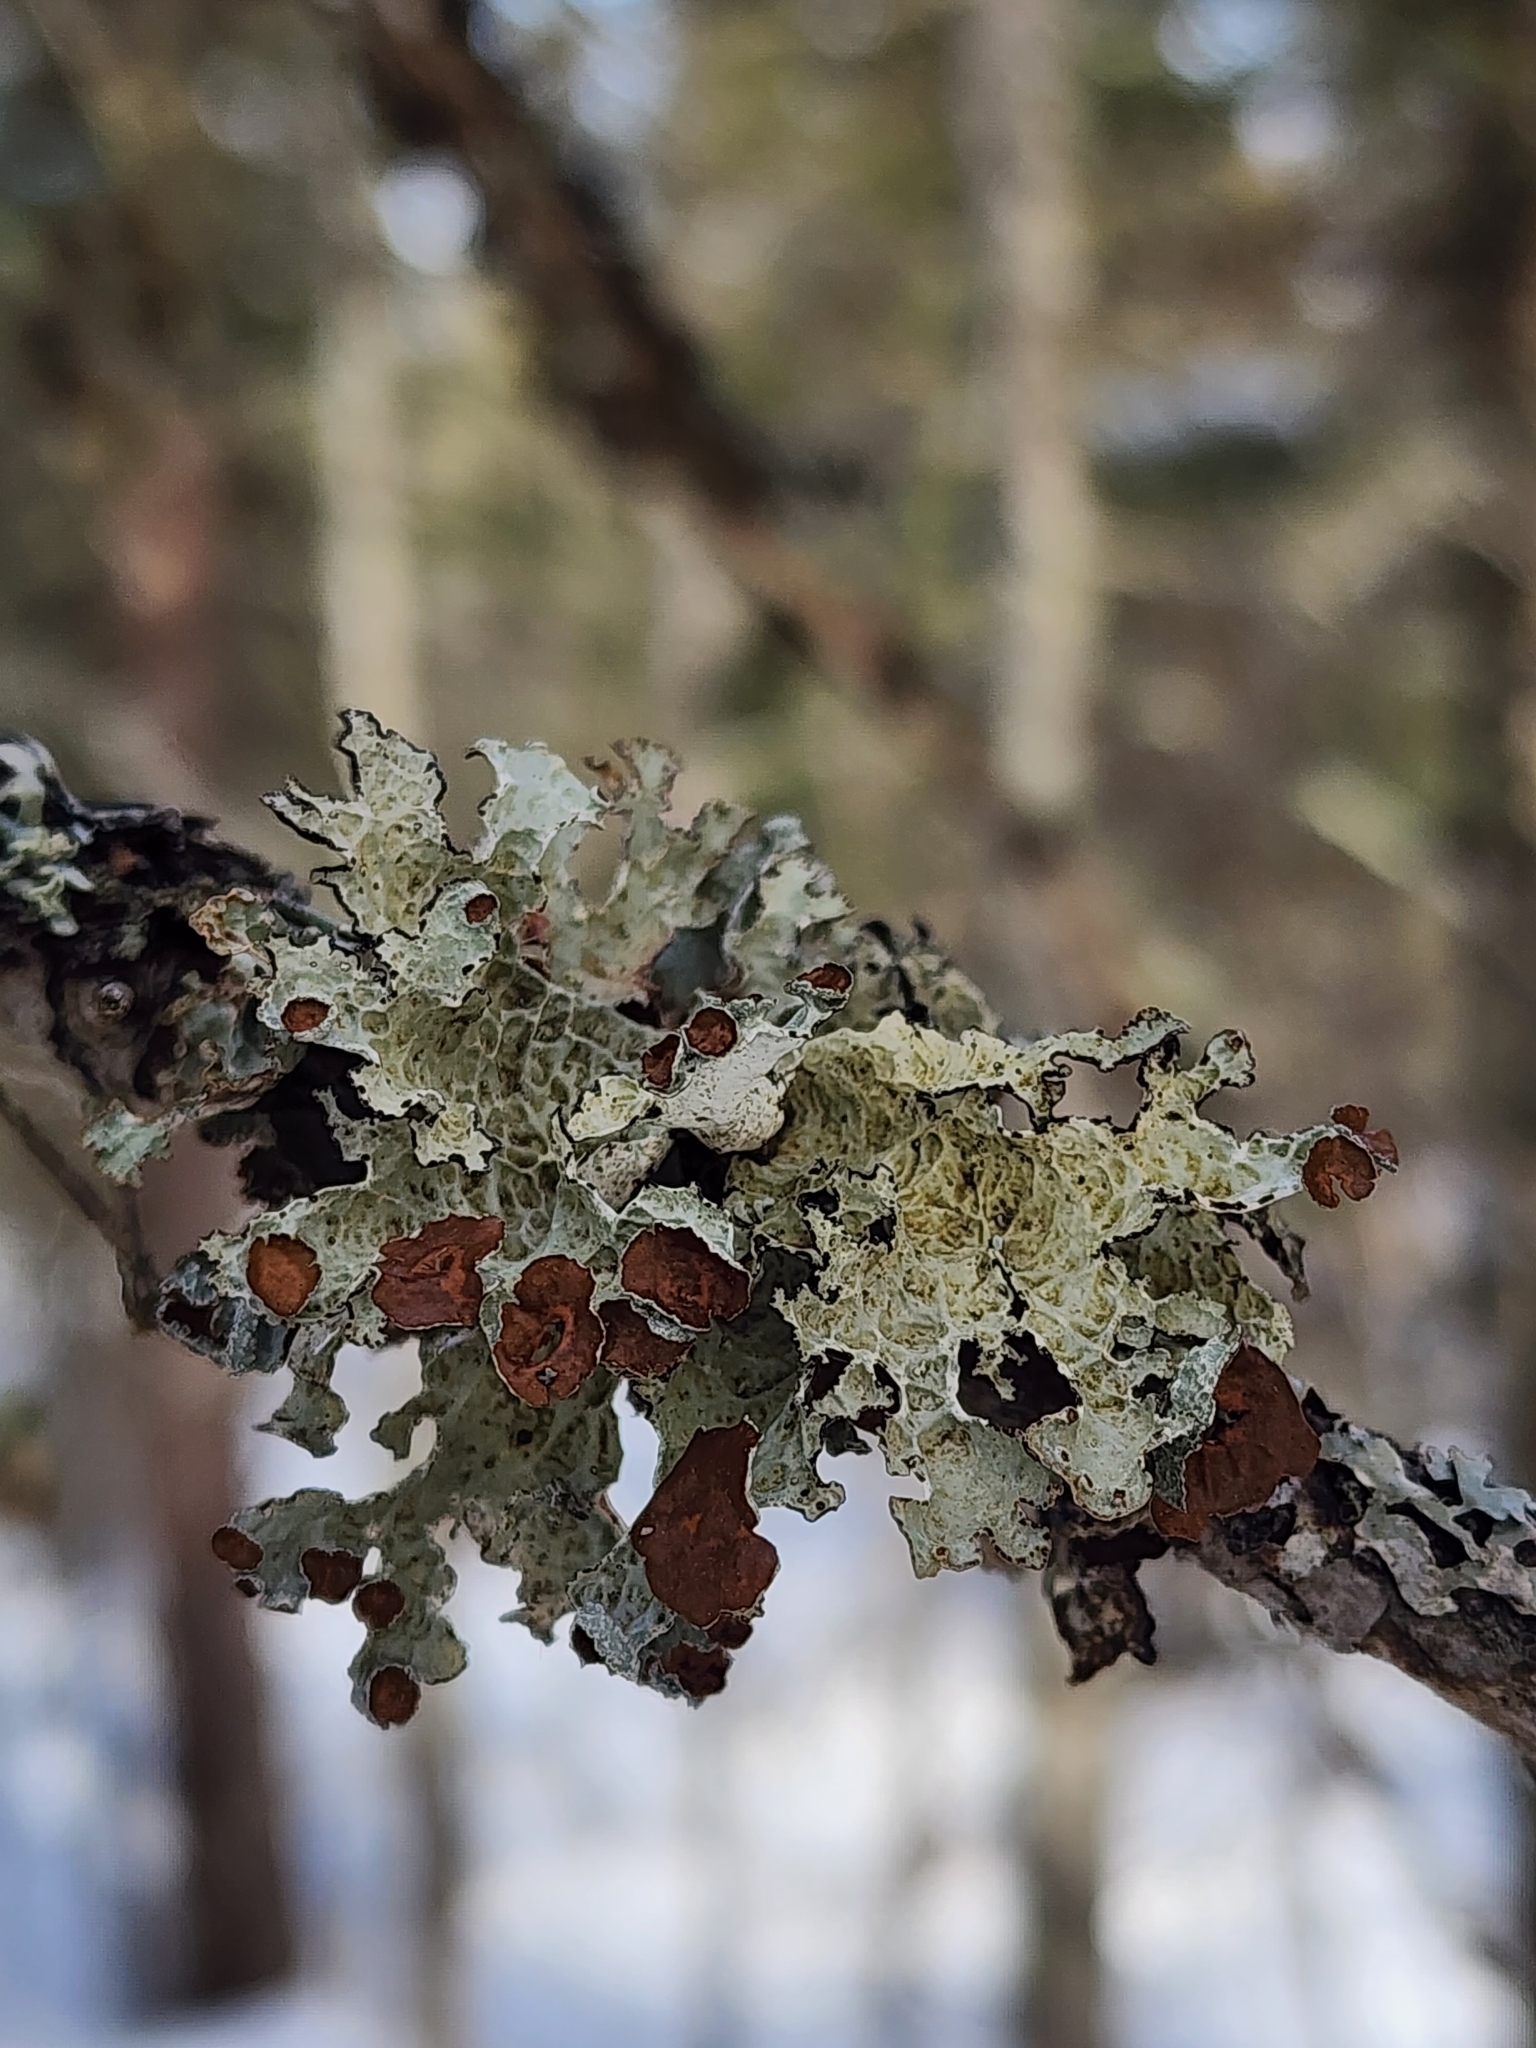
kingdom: Fungi
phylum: Ascomycota
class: Lecanoromycetes
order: Lecanorales
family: Parmeliaceae
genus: Platismatia
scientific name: Platismatia tuckermanii
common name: Crumpled rag lichen
